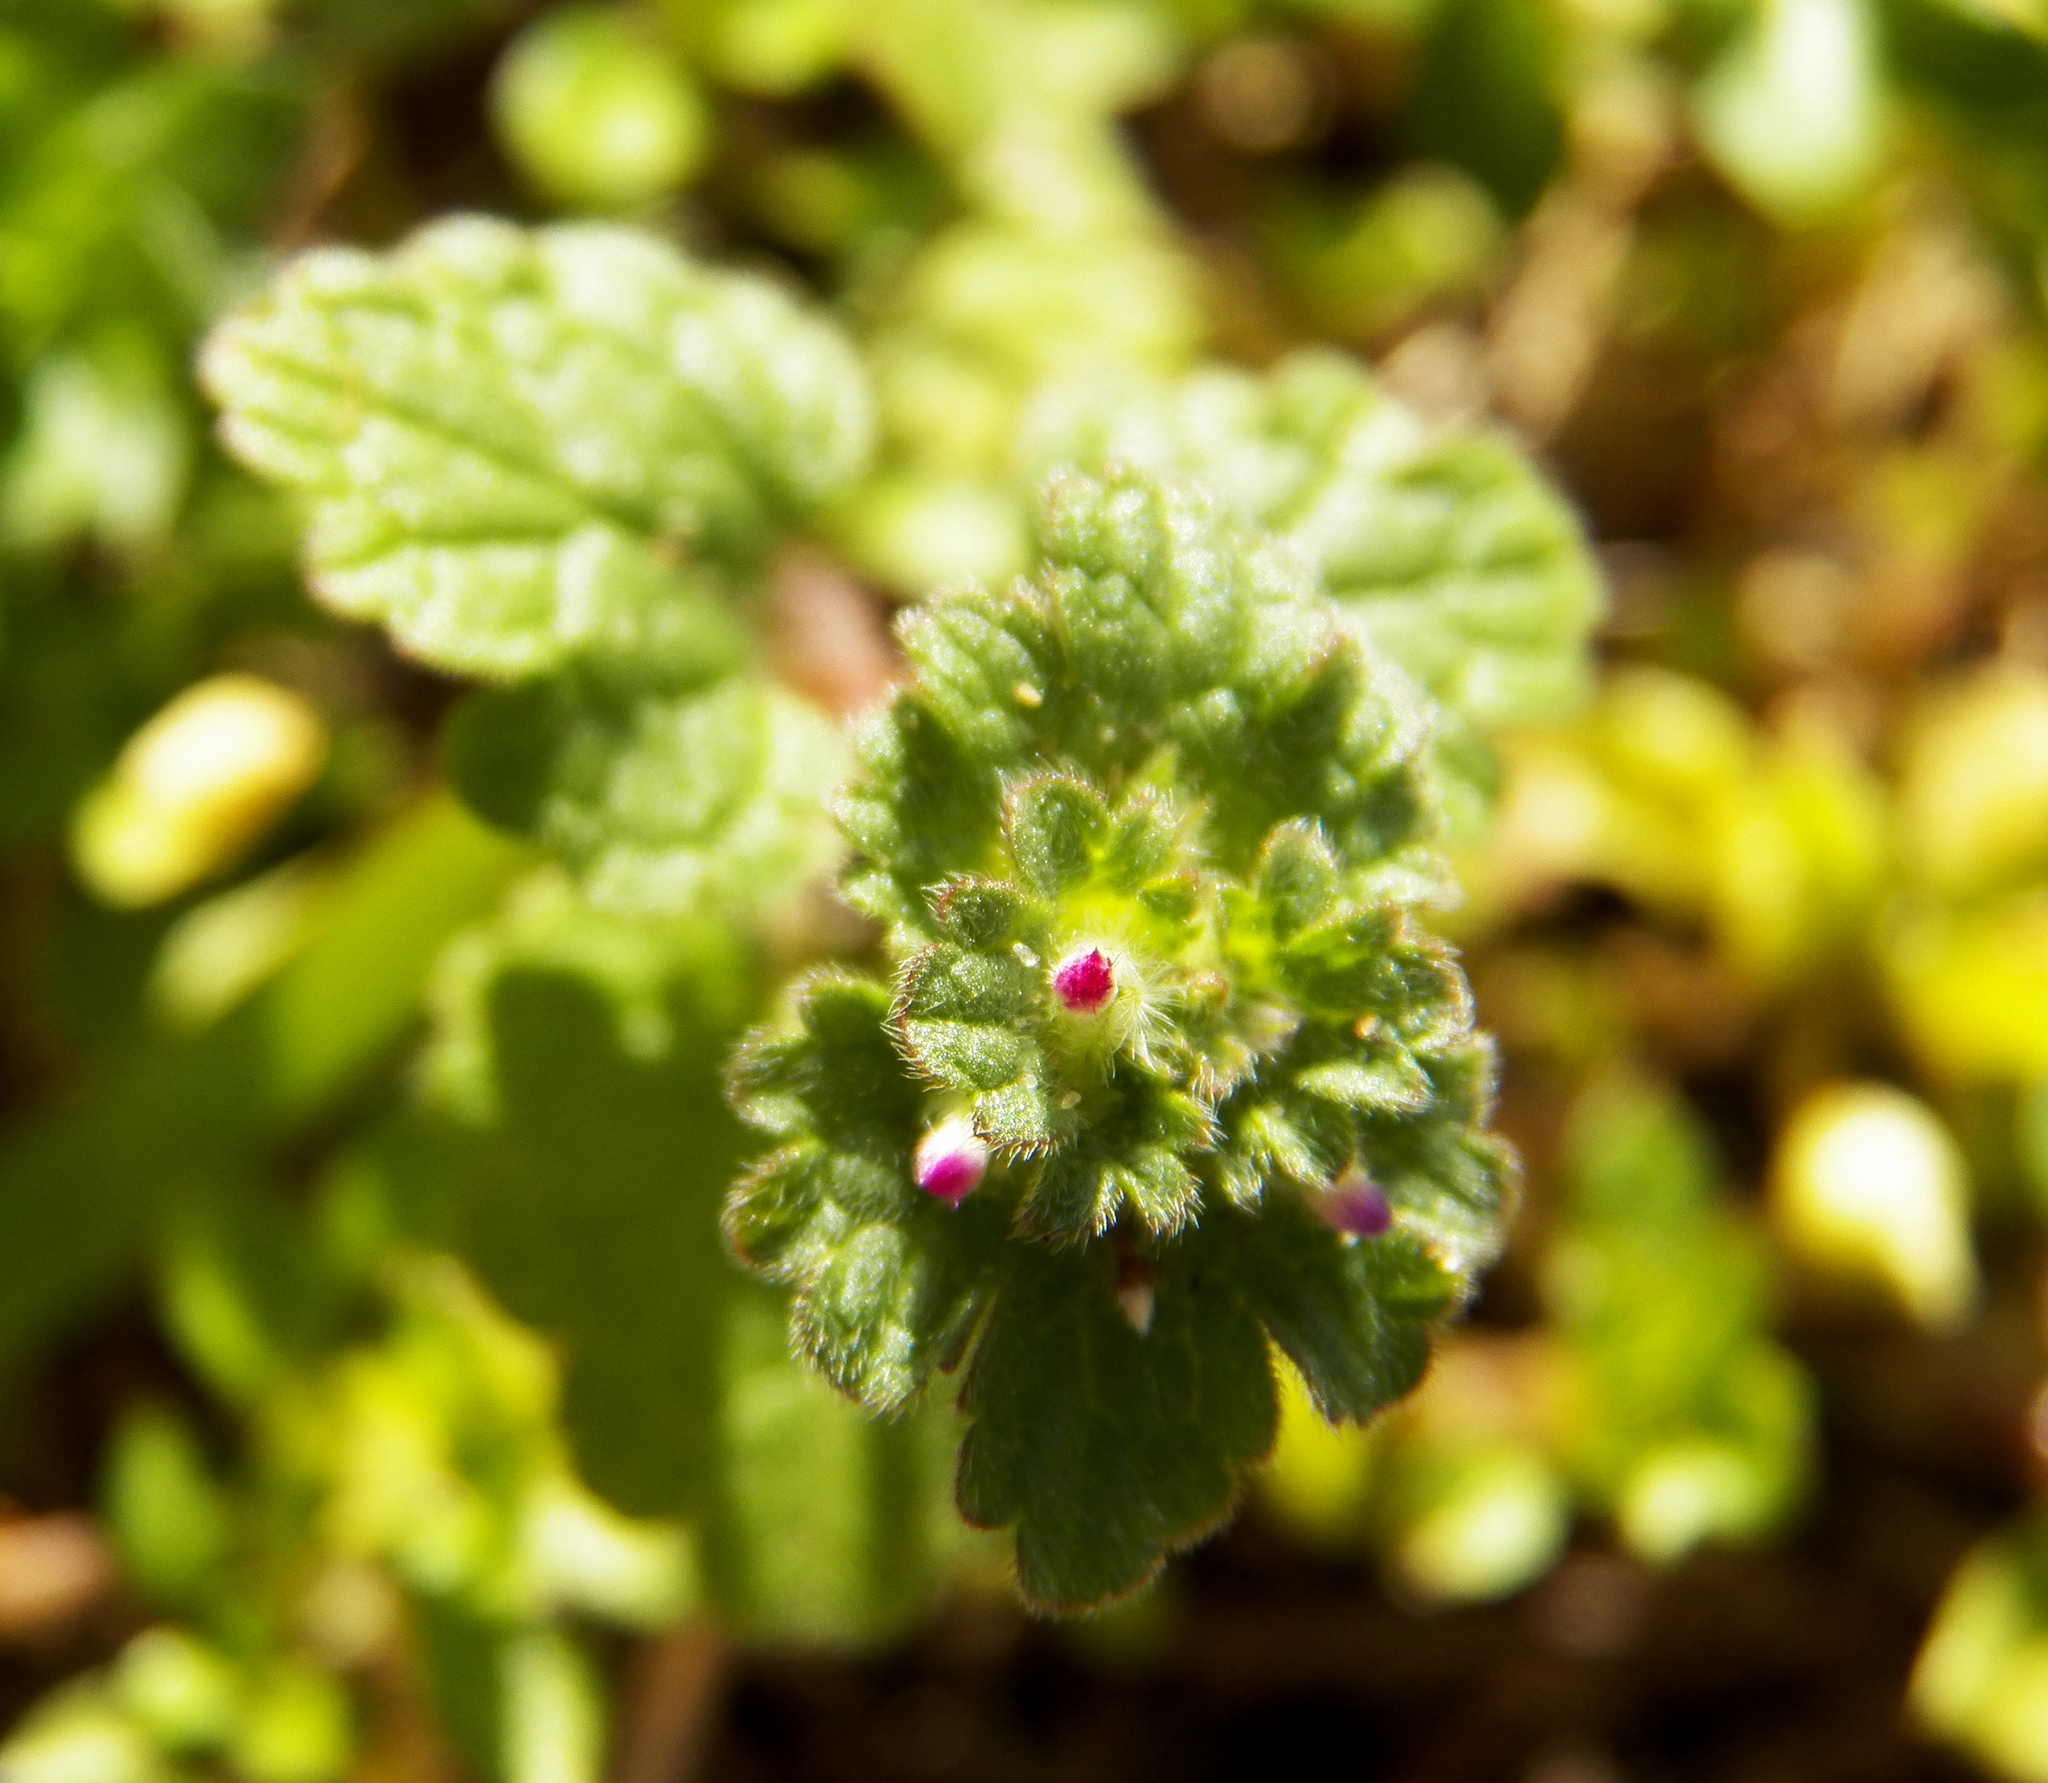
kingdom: Plantae
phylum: Tracheophyta
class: Magnoliopsida
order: Lamiales
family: Lamiaceae
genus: Lamium
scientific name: Lamium amplexicaule
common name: Henbit dead-nettle
